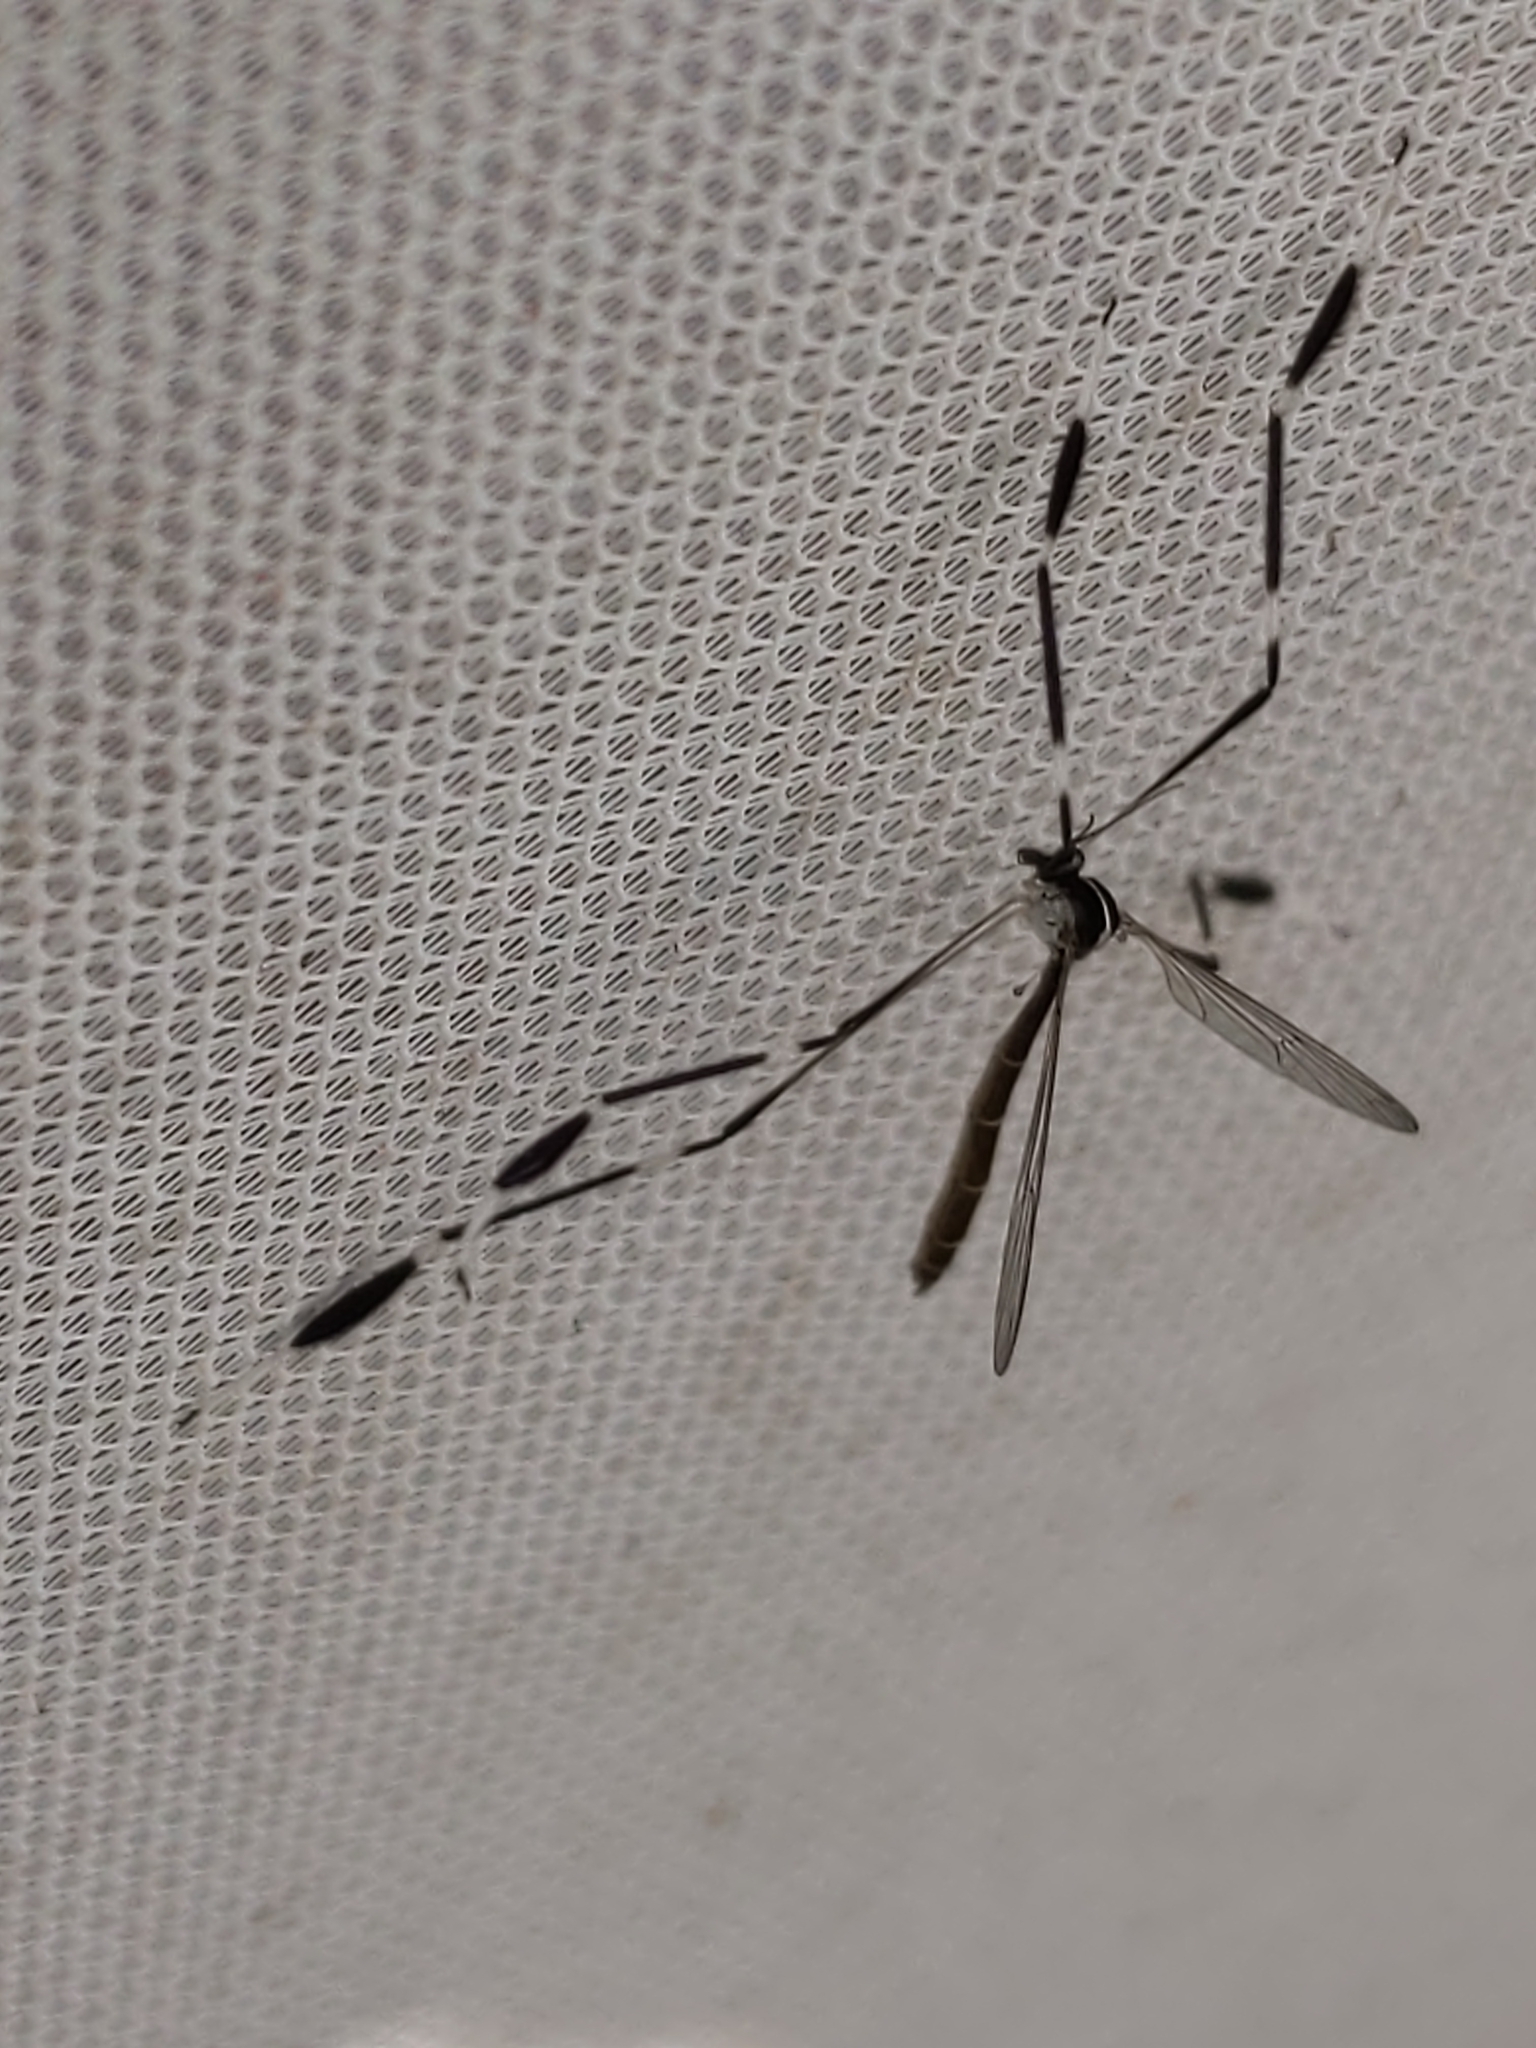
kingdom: Animalia
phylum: Arthropoda
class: Insecta
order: Diptera
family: Ptychopteridae
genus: Bittacomorpha
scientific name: Bittacomorpha clavipes
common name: Eastern phantom crane fly
